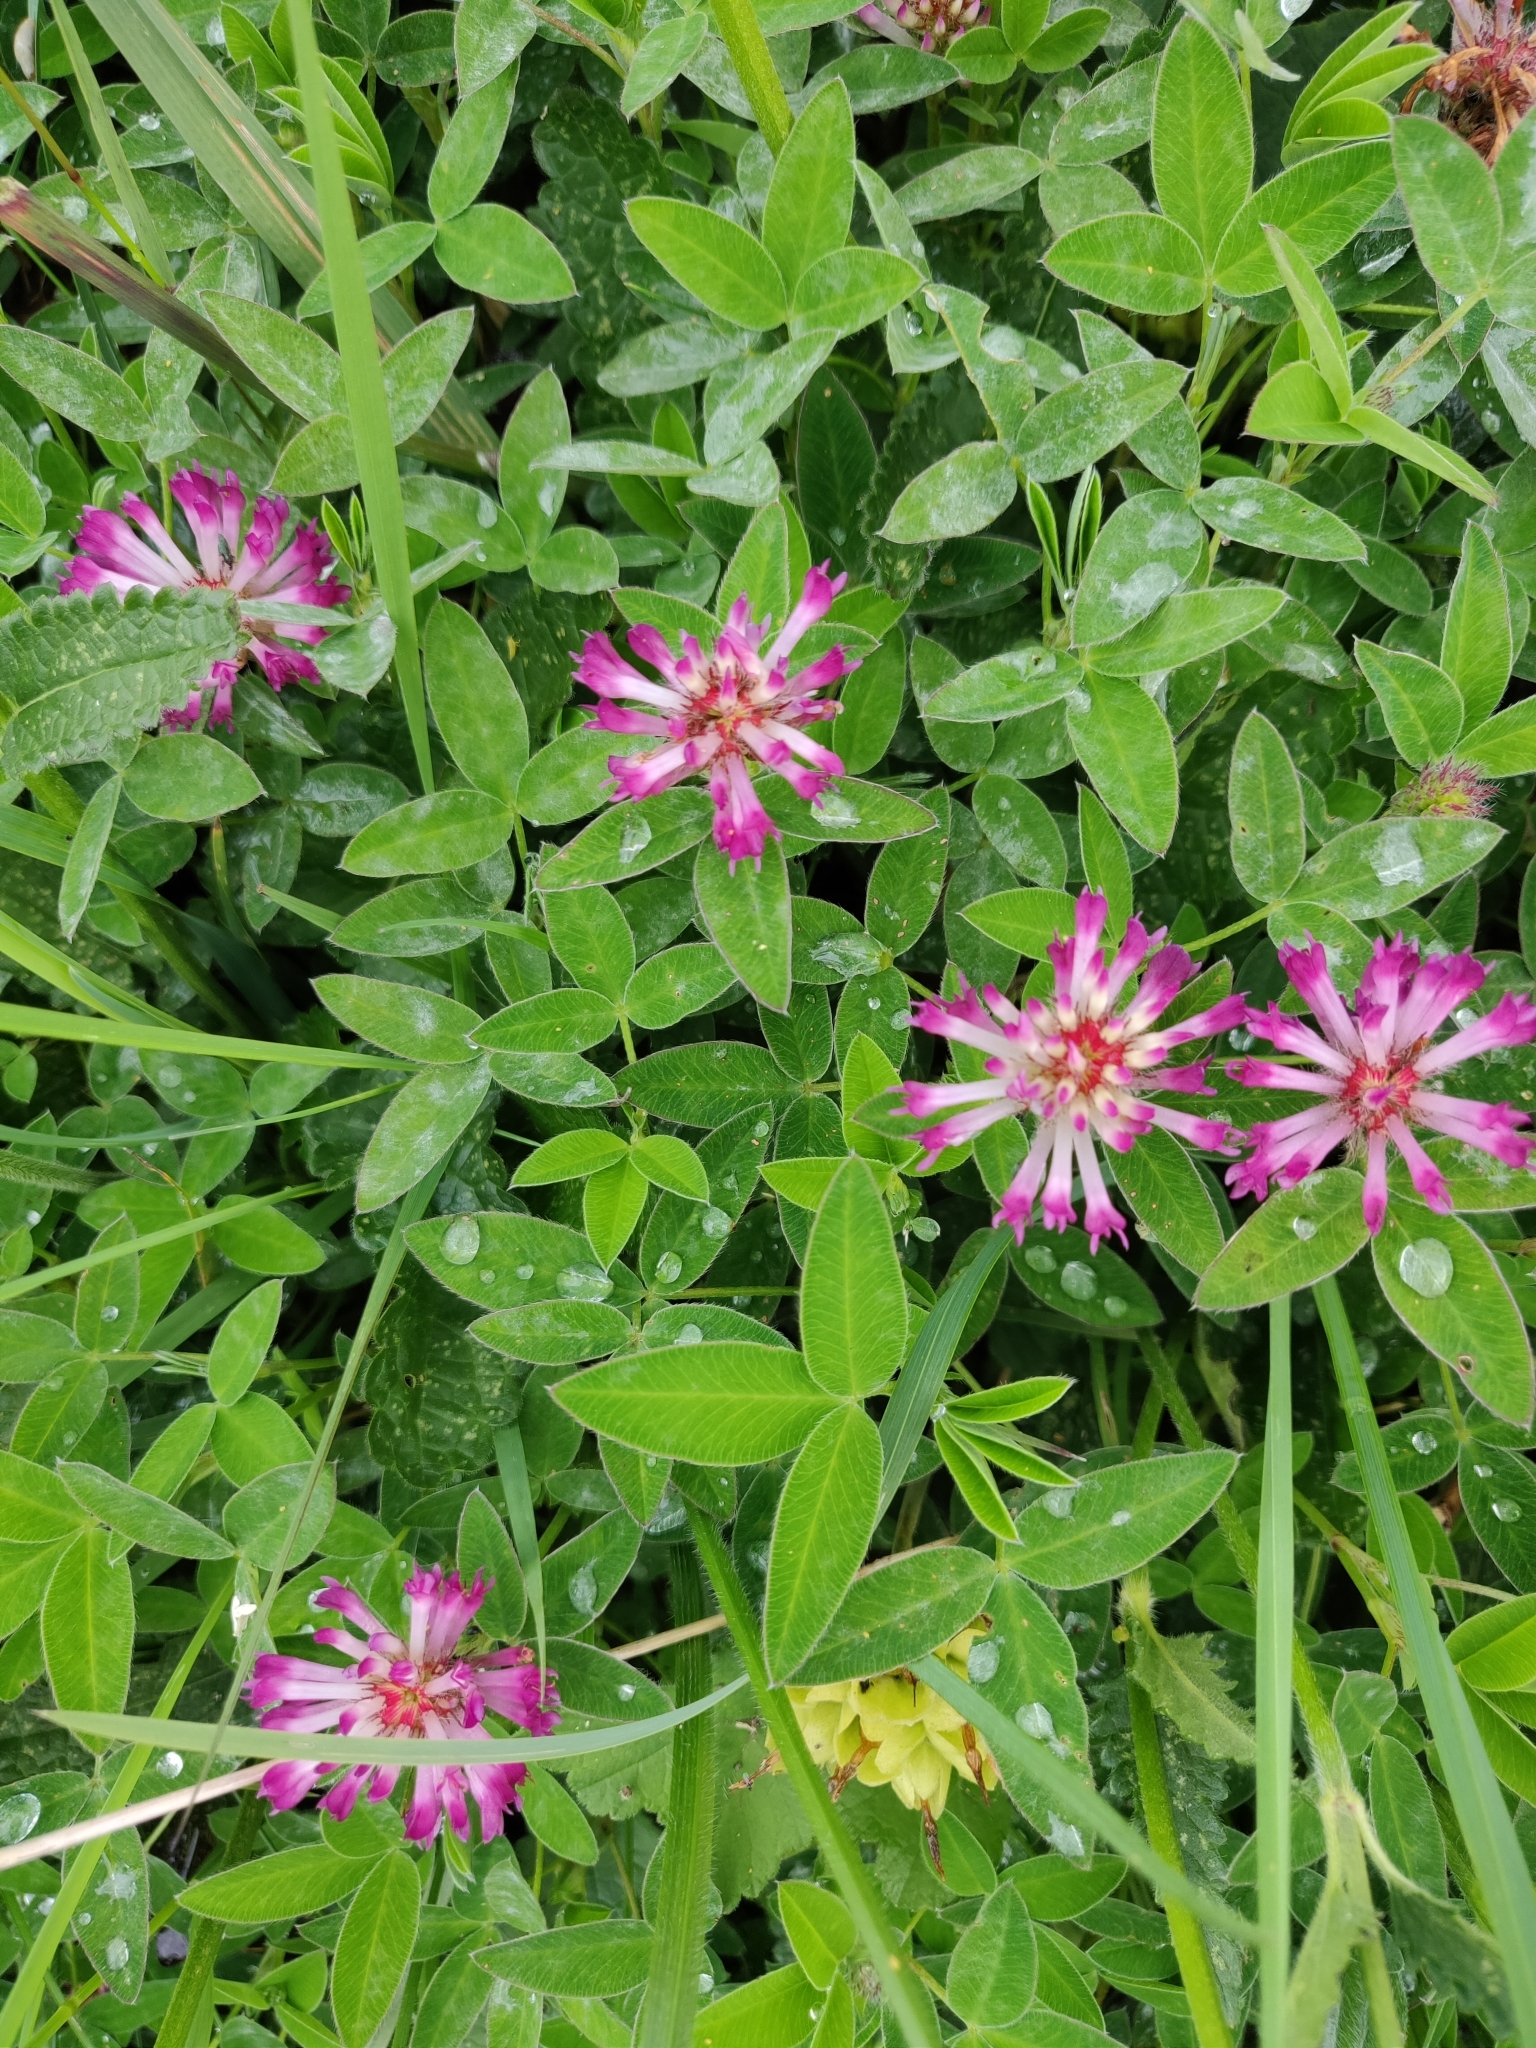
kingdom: Plantae
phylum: Tracheophyta
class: Magnoliopsida
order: Fabales
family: Fabaceae
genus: Trifolium
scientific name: Trifolium medium
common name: Zigzag clover
